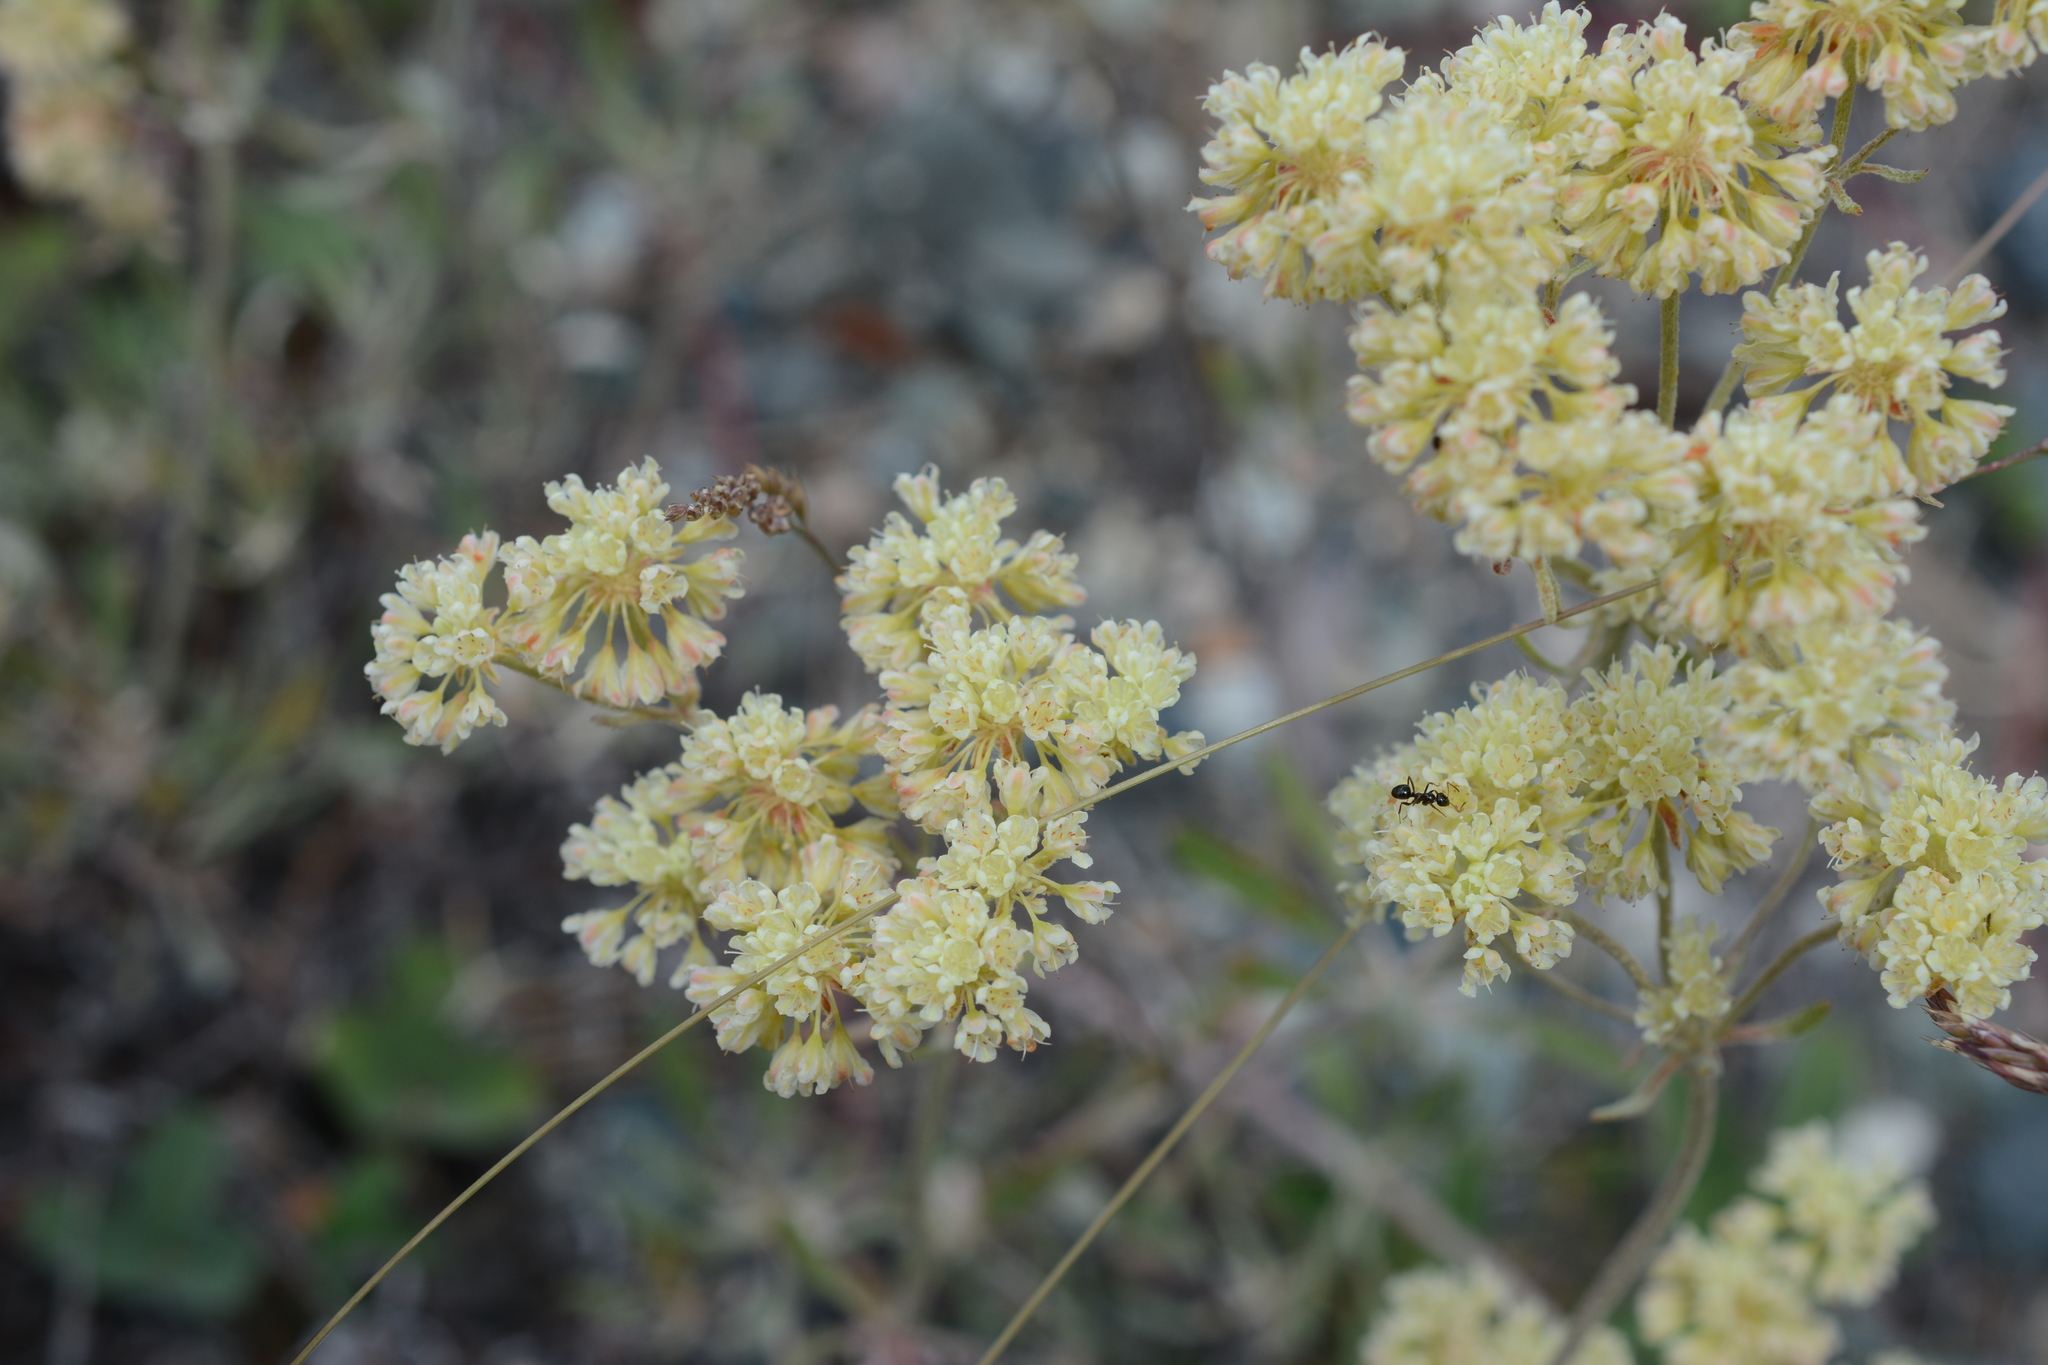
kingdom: Plantae
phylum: Tracheophyta
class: Magnoliopsida
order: Caryophyllales
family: Polygonaceae
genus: Eriogonum
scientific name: Eriogonum heracleoides
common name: Wyeth's buckwheat
